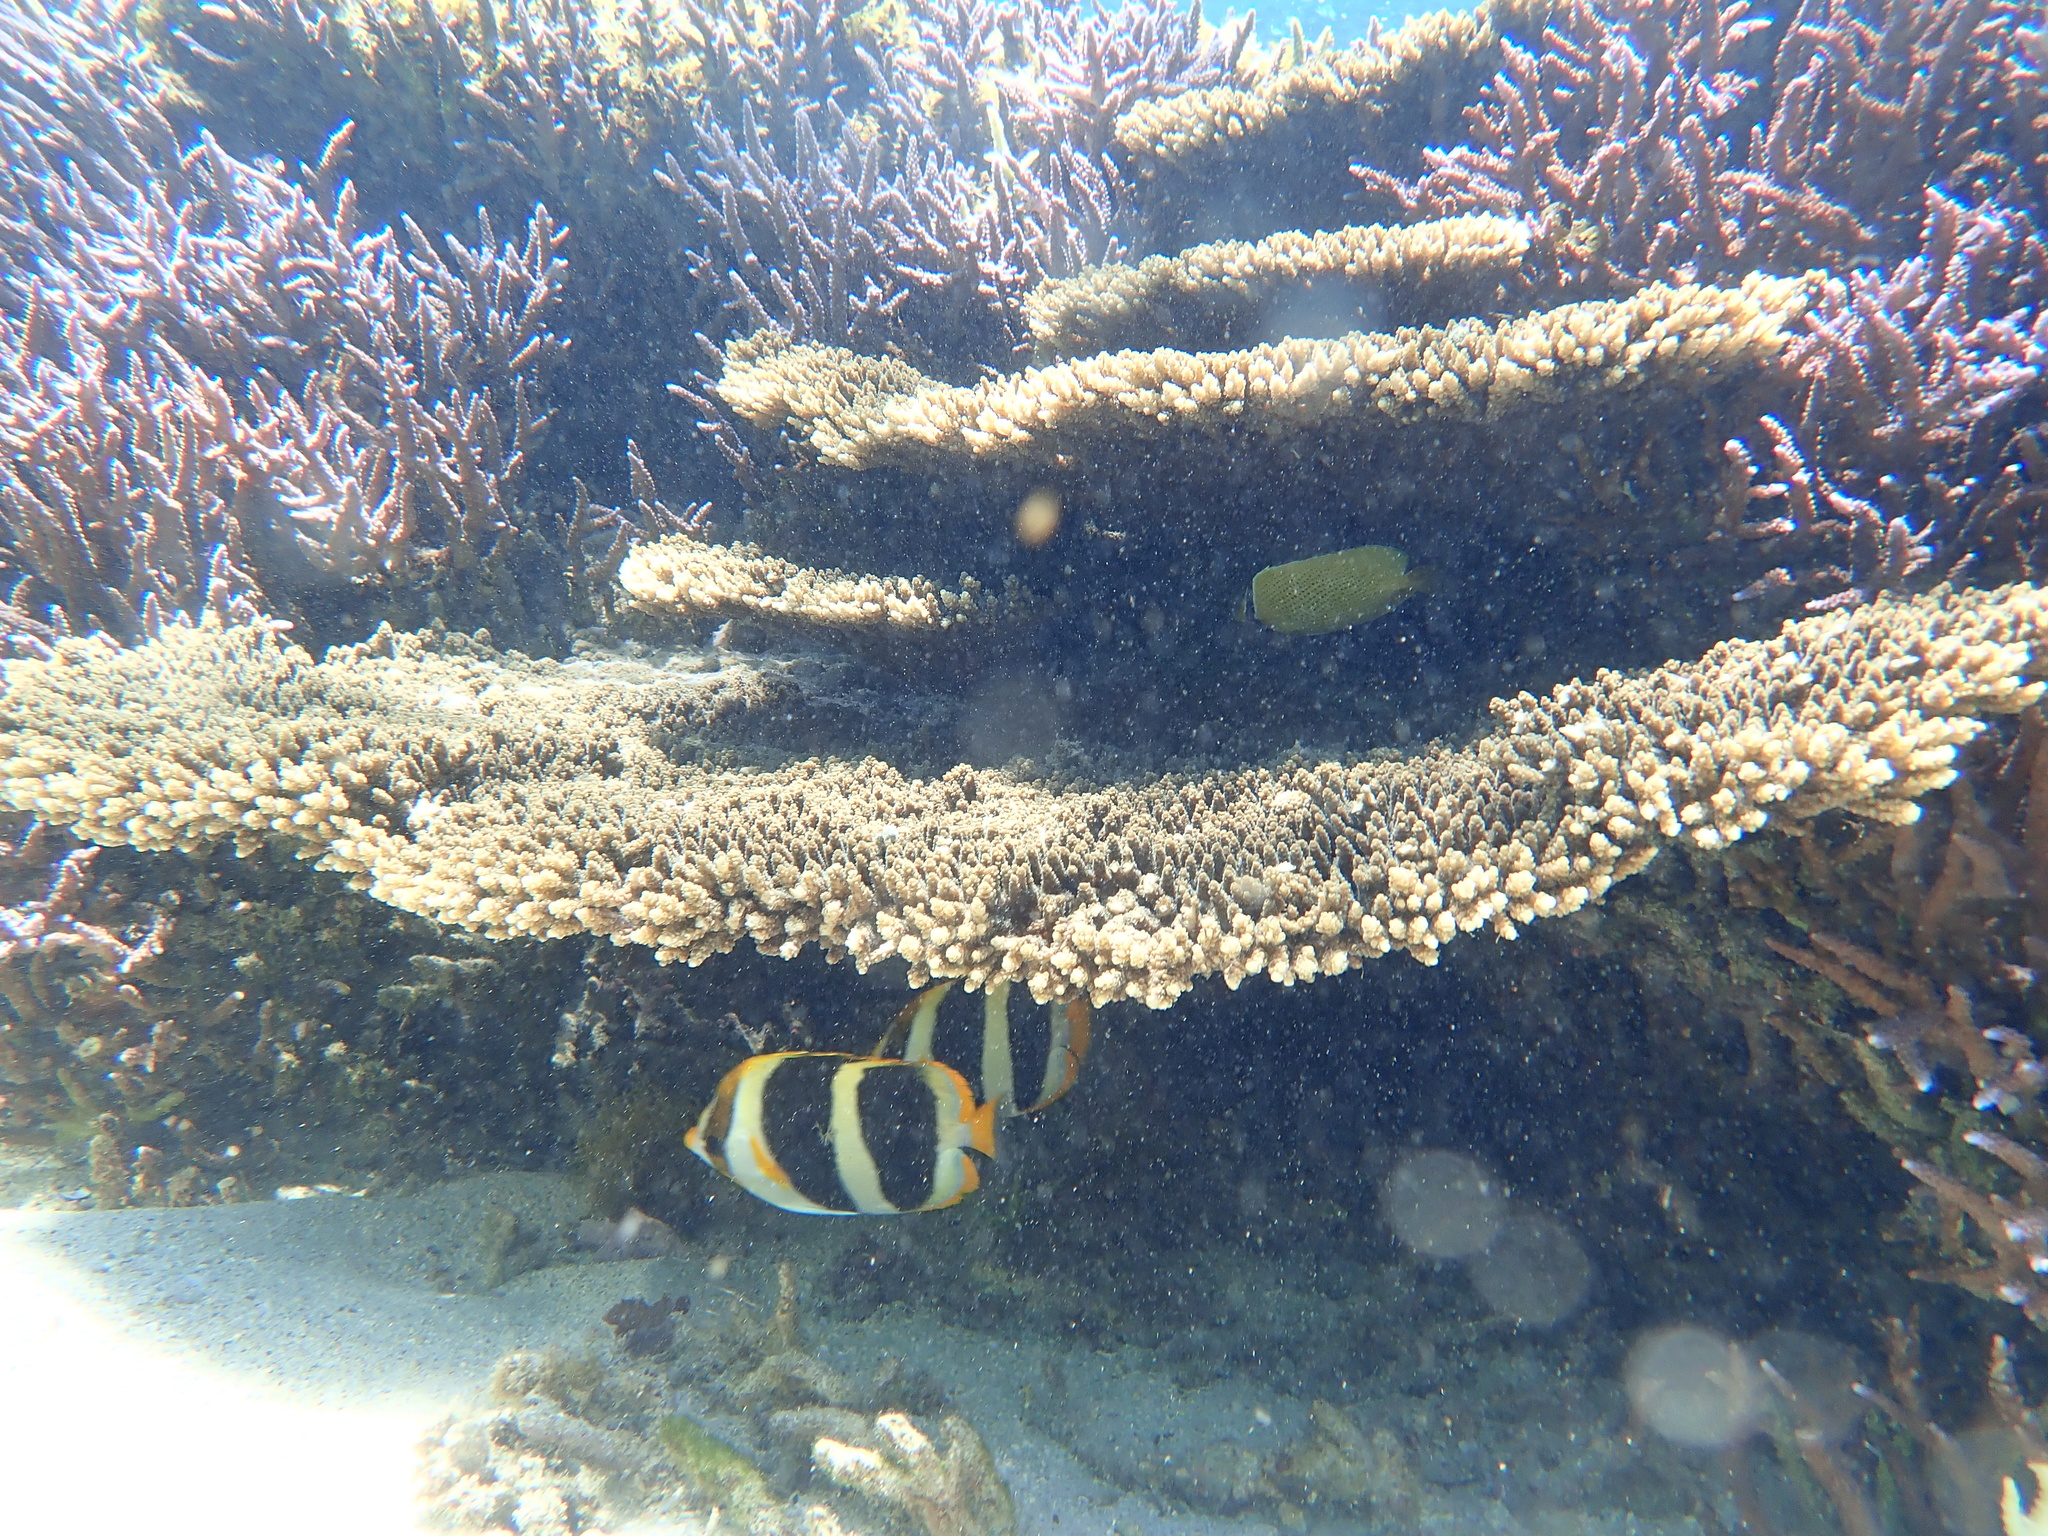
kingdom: Animalia
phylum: Chordata
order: Perciformes
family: Chaetodontidae
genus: Chaetodon
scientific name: Chaetodon tricinctus
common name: Three-striped butterflyfish
